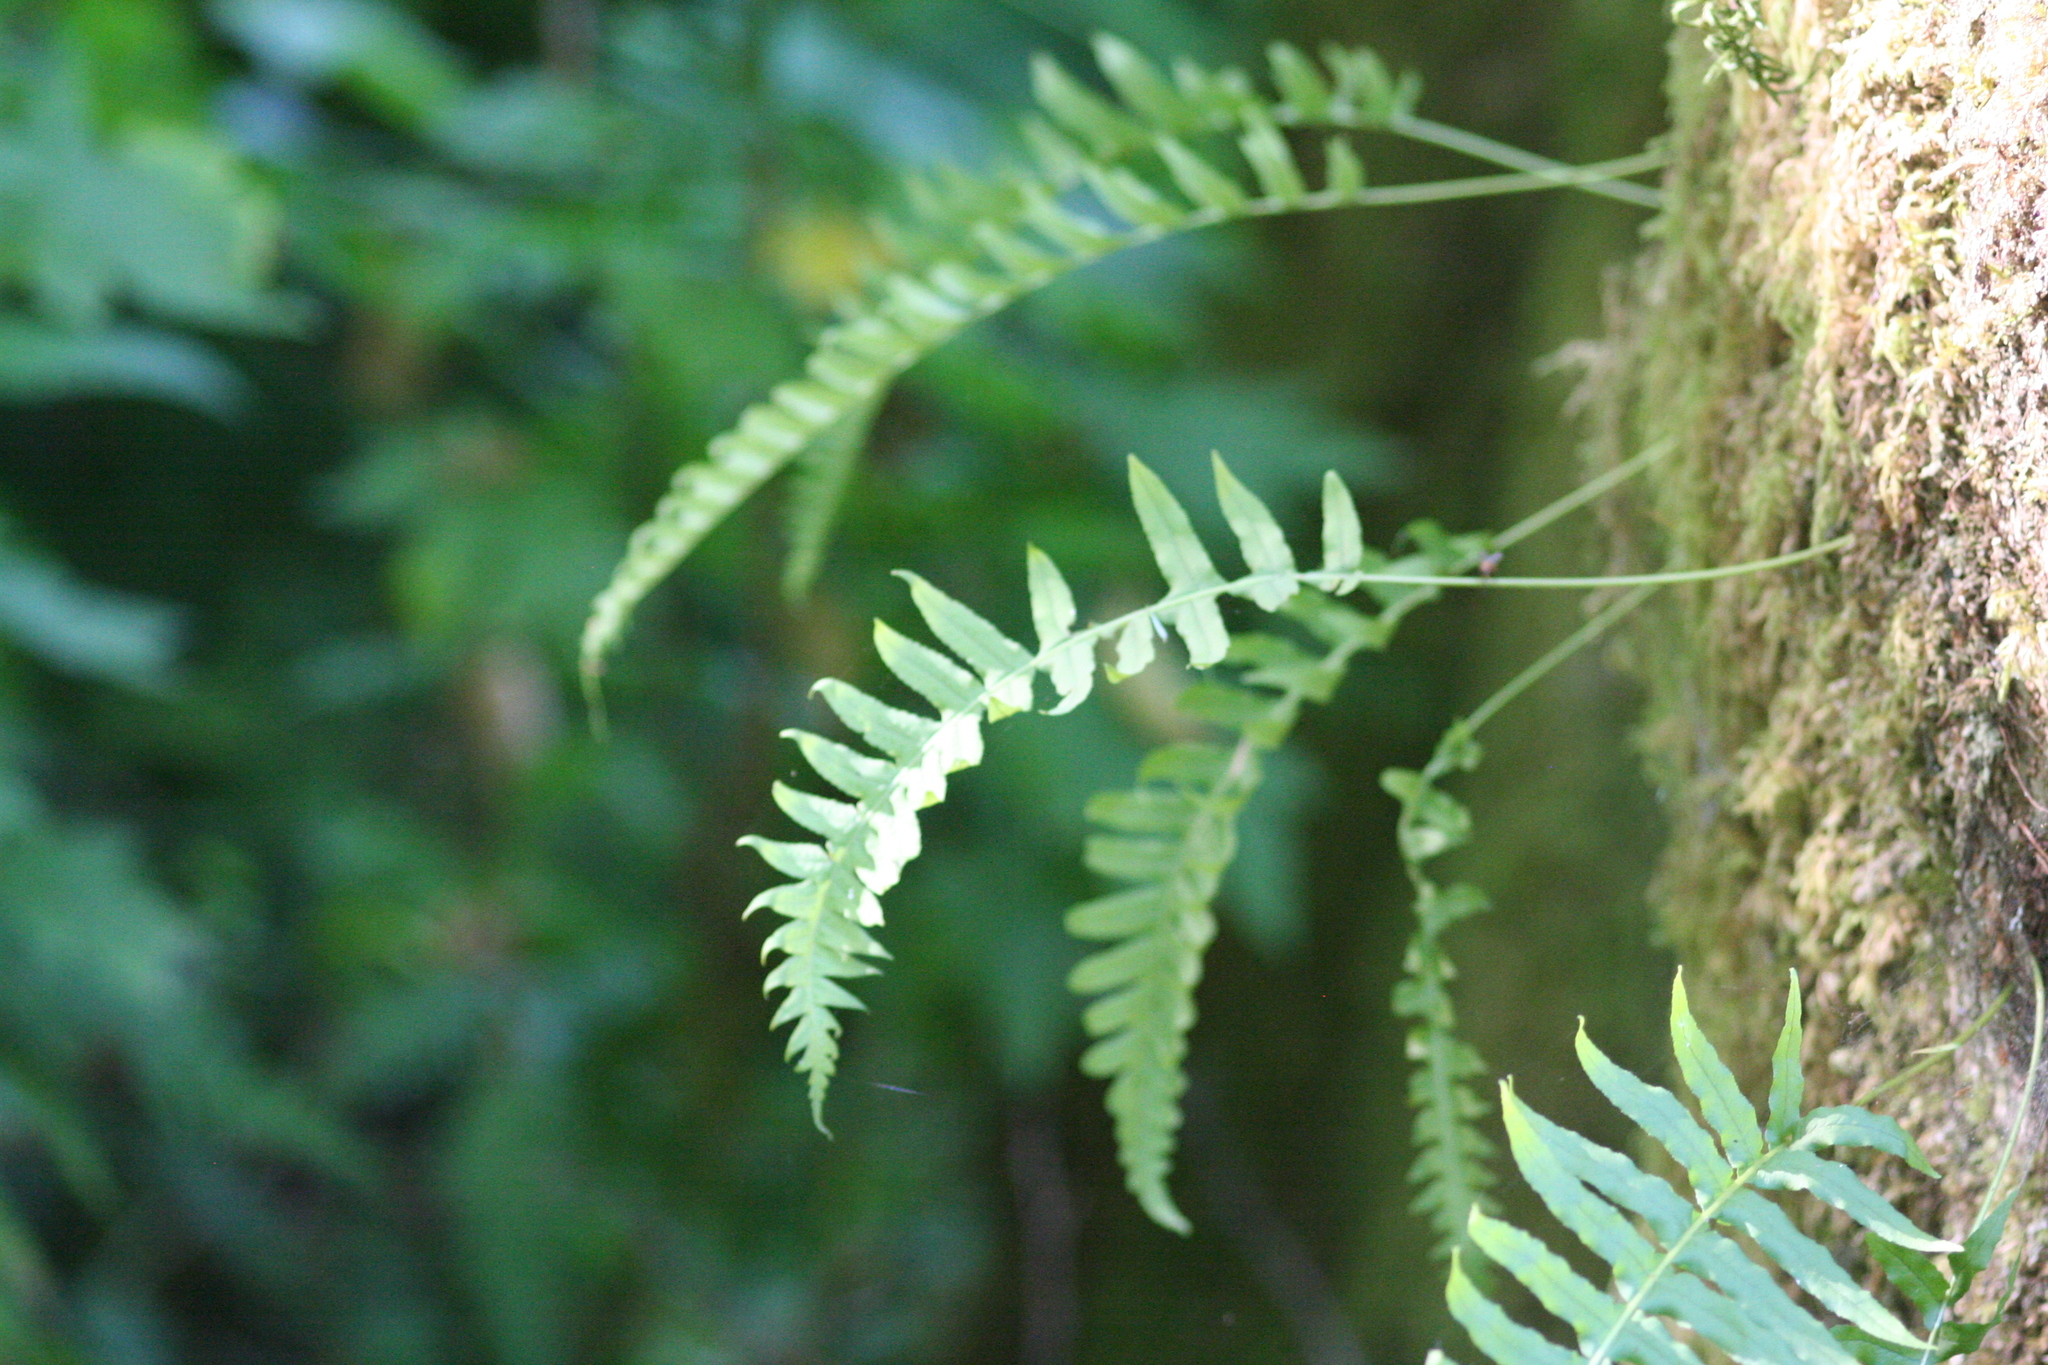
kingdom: Plantae
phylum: Tracheophyta
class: Polypodiopsida
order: Polypodiales
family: Polypodiaceae
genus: Polypodium
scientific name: Polypodium glycyrrhiza
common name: Licorice fern
